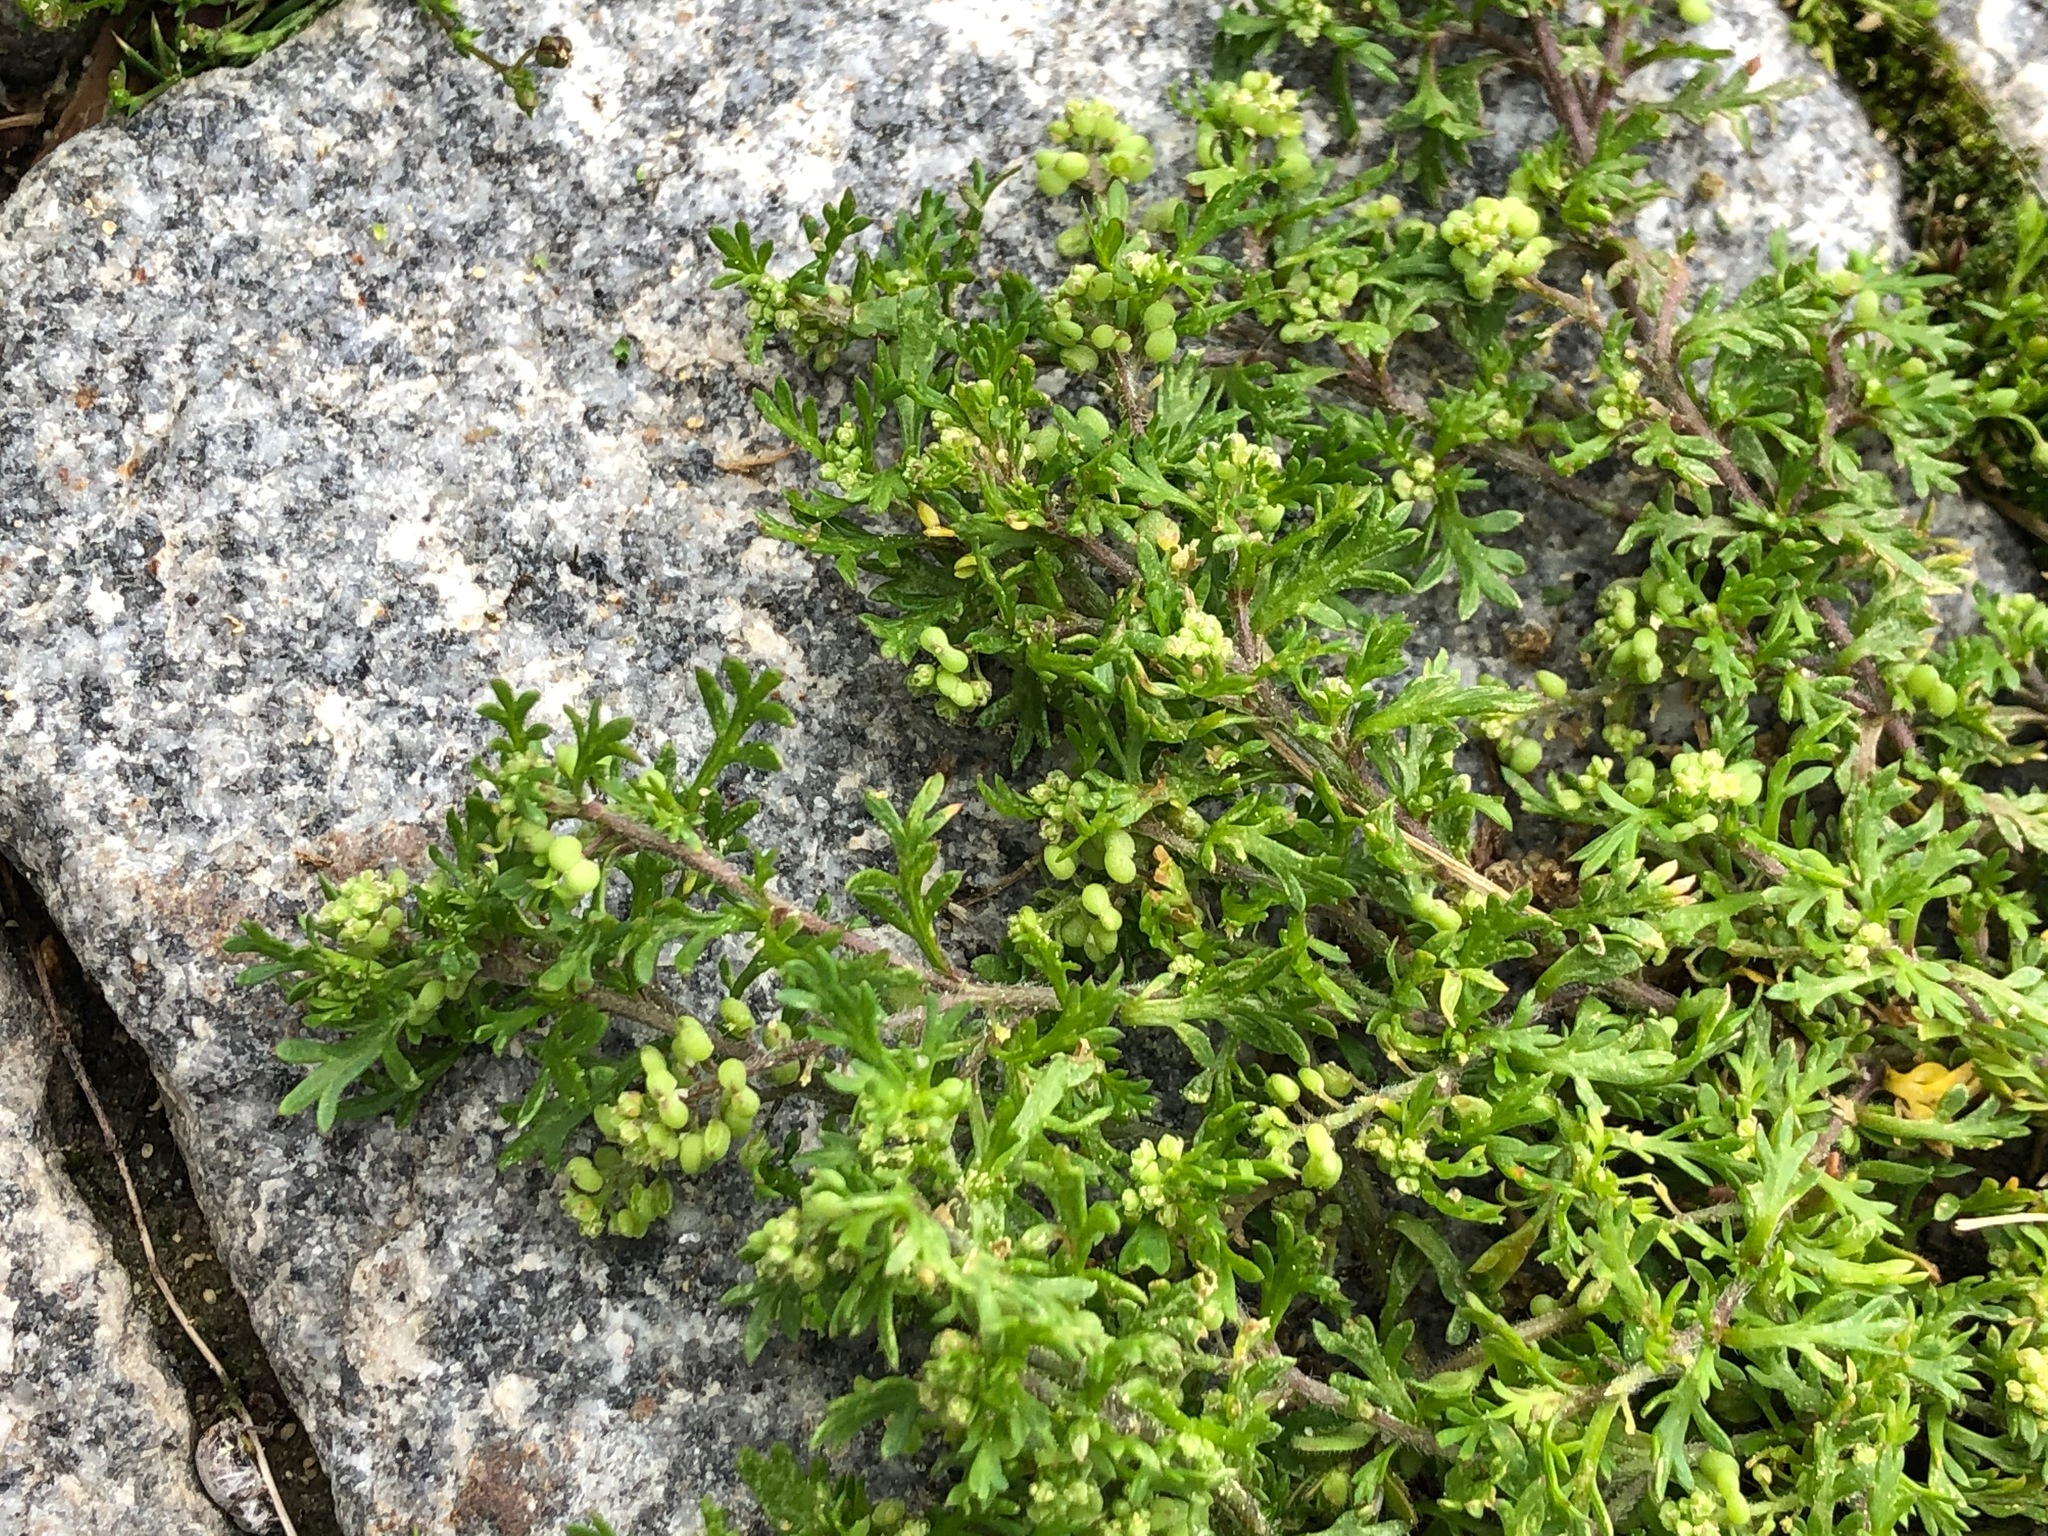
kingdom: Plantae
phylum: Tracheophyta
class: Magnoliopsida
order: Brassicales
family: Brassicaceae
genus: Lepidium
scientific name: Lepidium didymum
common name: Lesser swinecress
